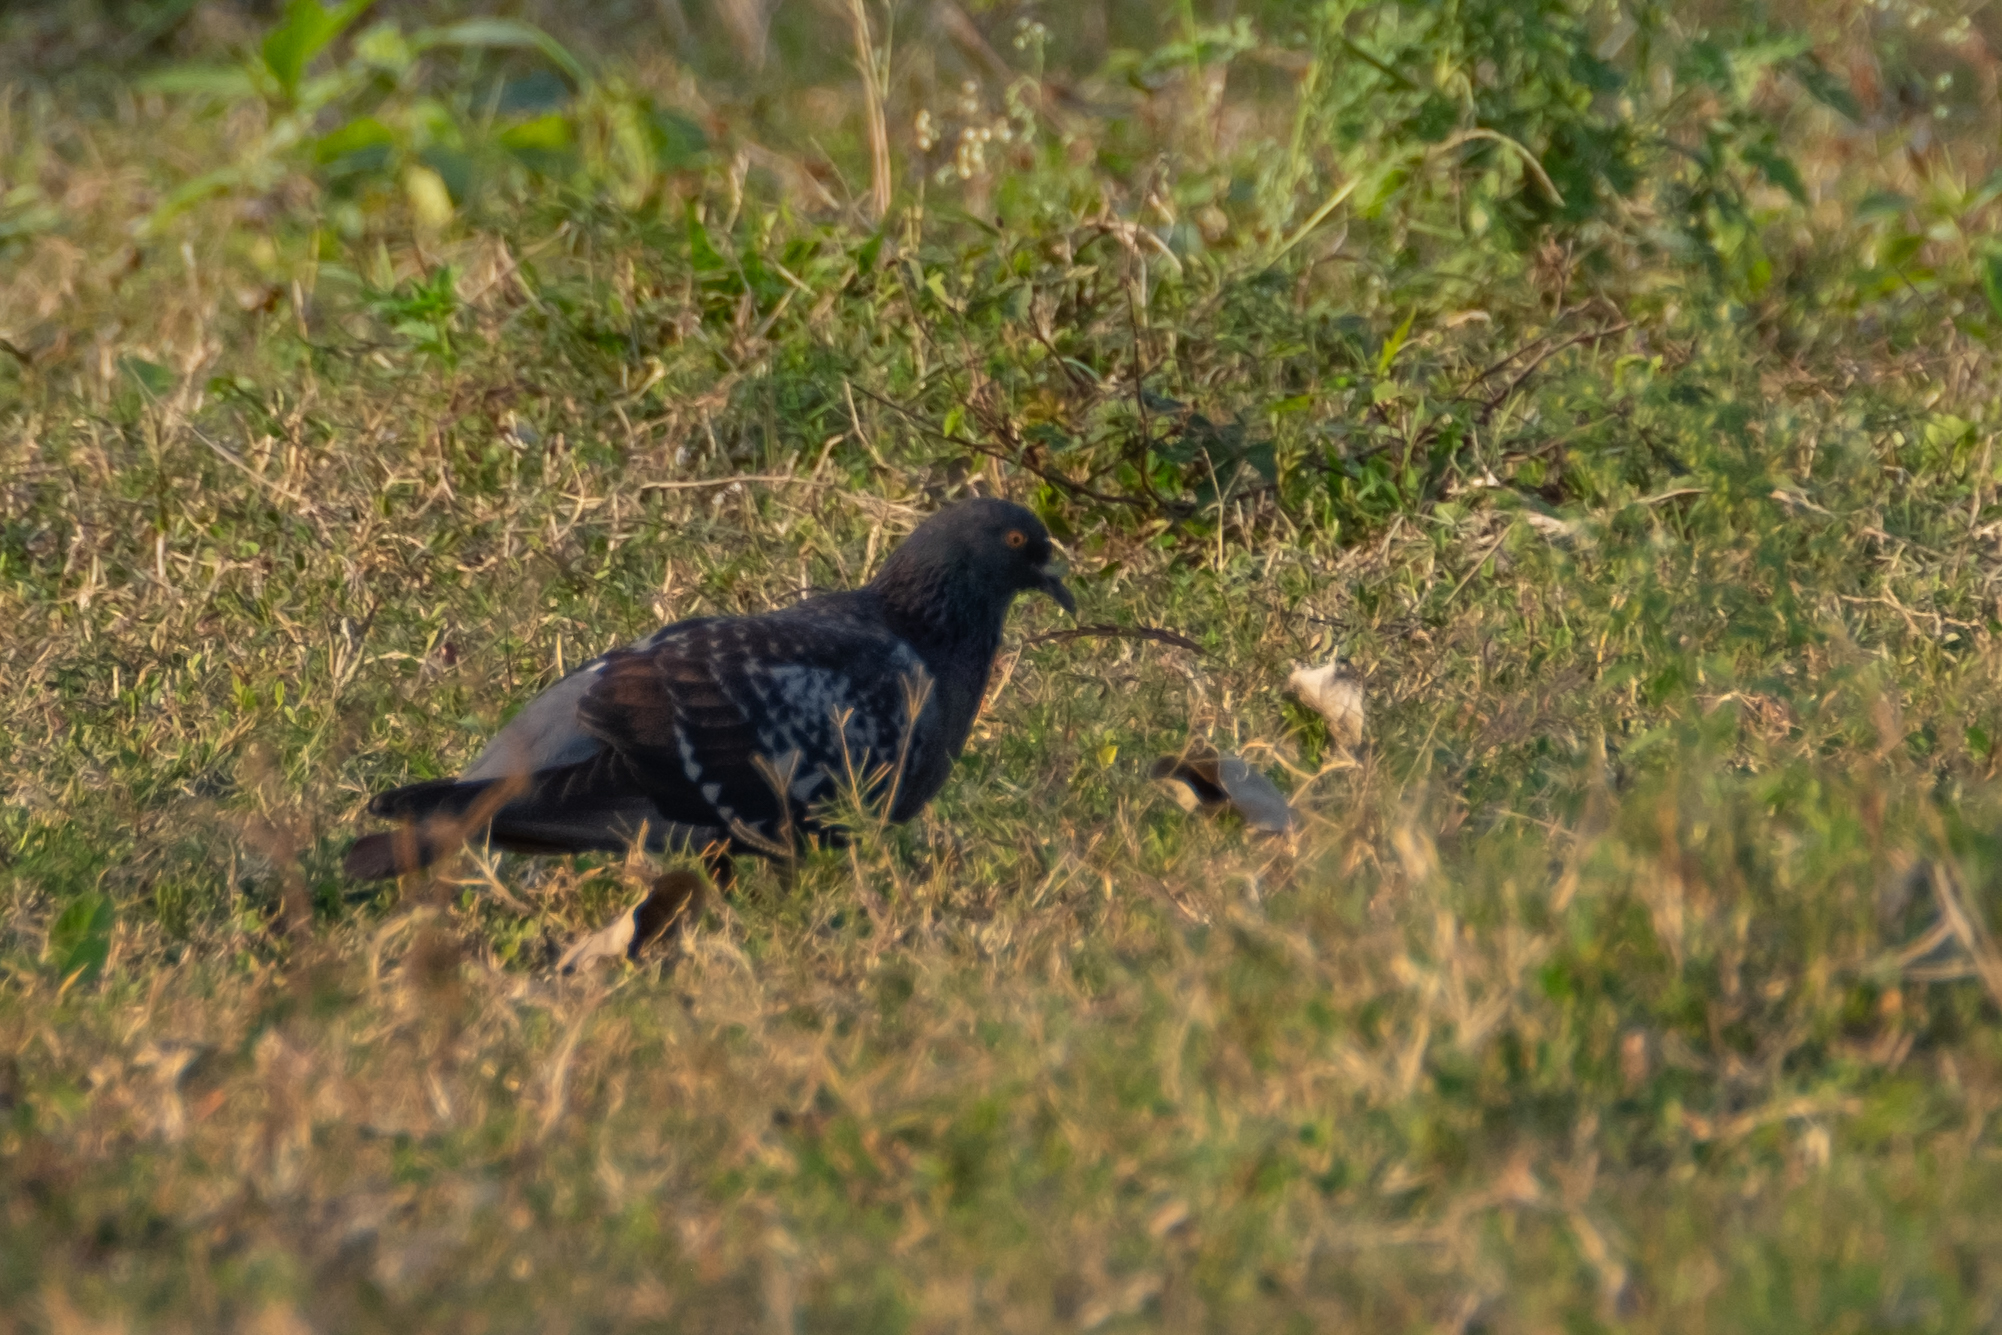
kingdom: Animalia
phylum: Chordata
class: Aves
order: Columbiformes
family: Columbidae
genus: Columba
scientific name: Columba livia
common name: Rock pigeon
